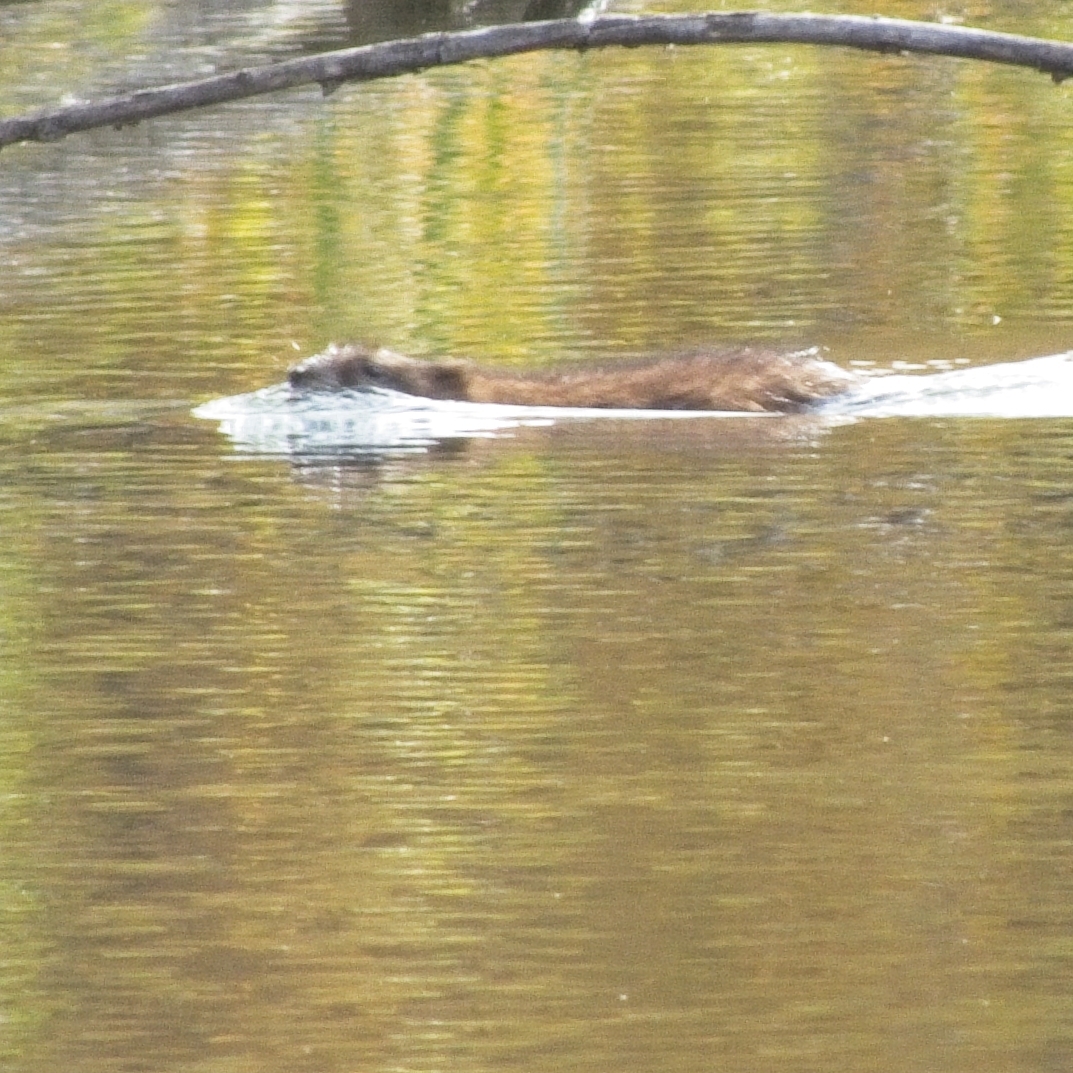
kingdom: Animalia
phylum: Chordata
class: Mammalia
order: Rodentia
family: Cricetidae
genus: Ondatra
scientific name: Ondatra zibethicus
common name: Muskrat
